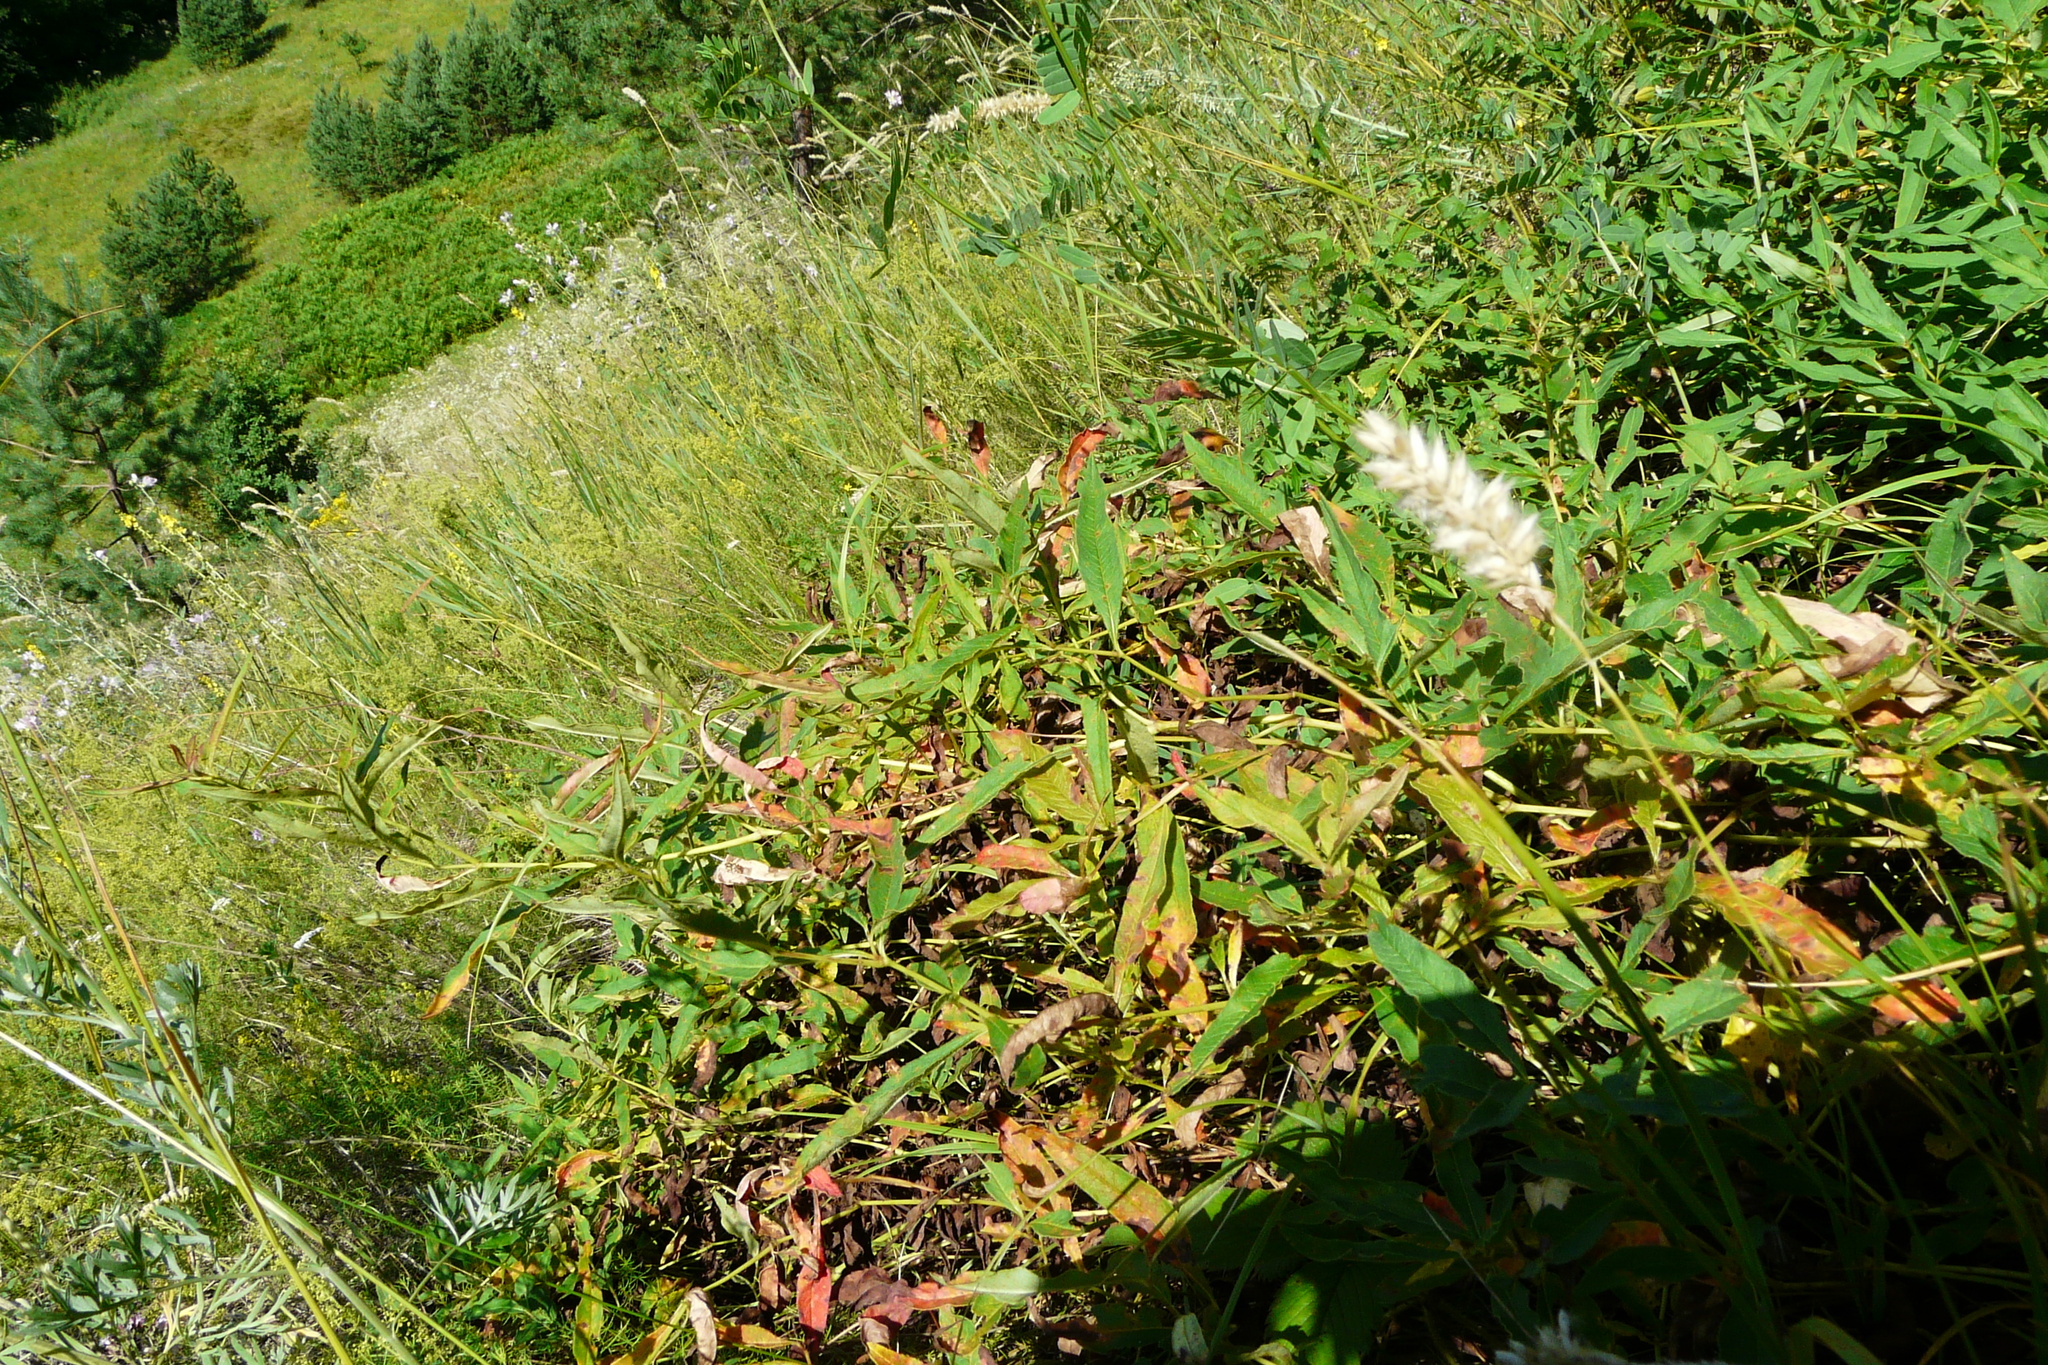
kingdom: Plantae
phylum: Tracheophyta
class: Magnoliopsida
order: Caryophyllales
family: Polygonaceae
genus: Koenigia
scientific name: Koenigia alpina
